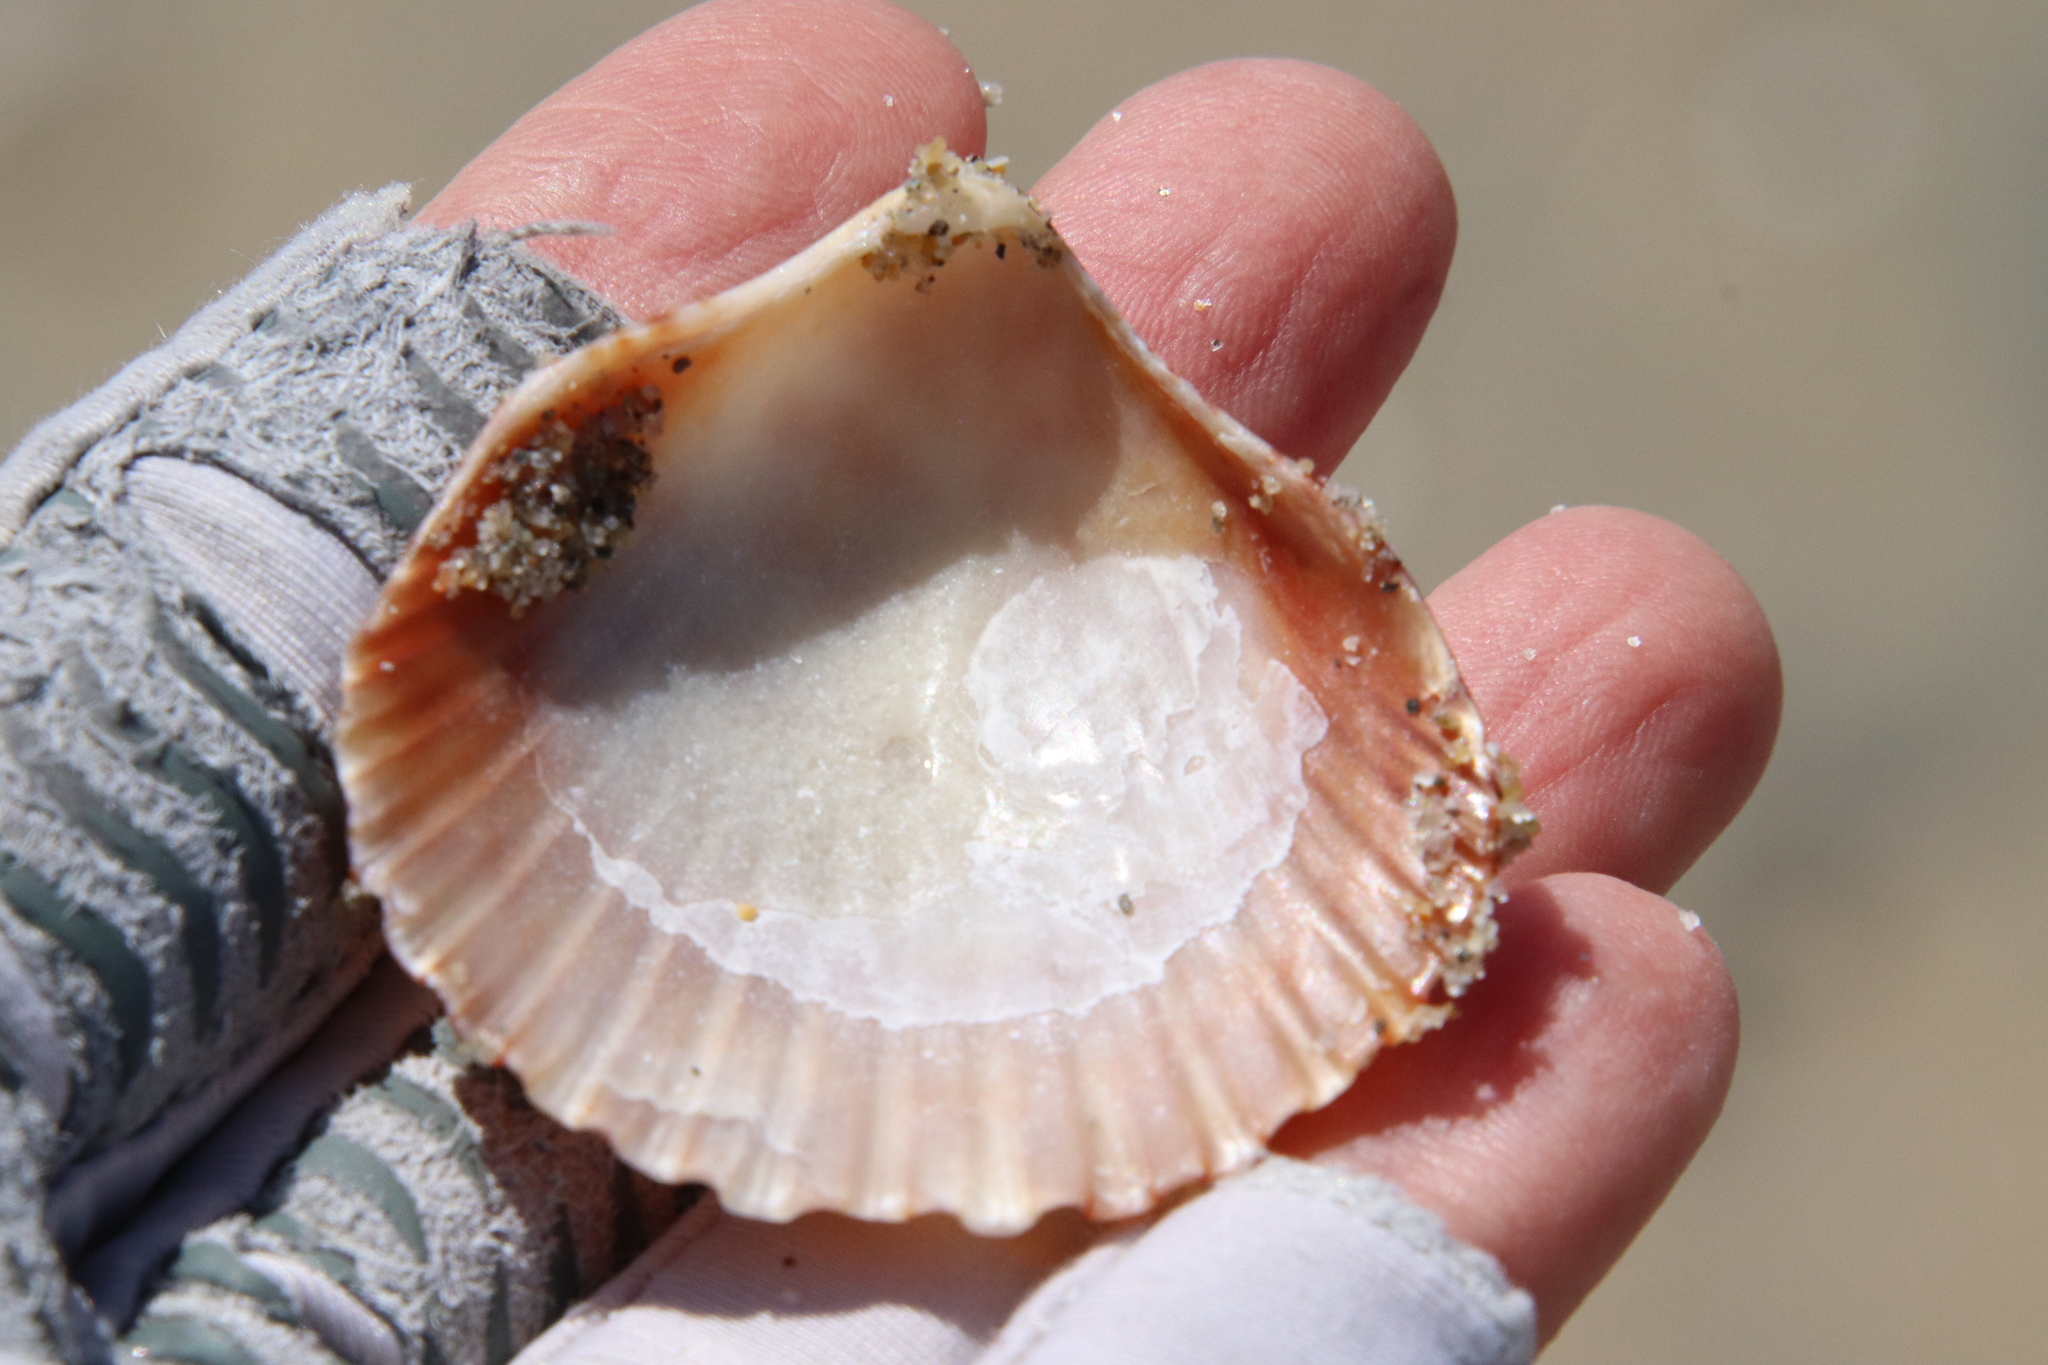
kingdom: Animalia
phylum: Mollusca
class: Bivalvia
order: Pectinida
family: Pectinidae
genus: Argopecten
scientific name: Argopecten ventricosus
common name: Catarina scallop
